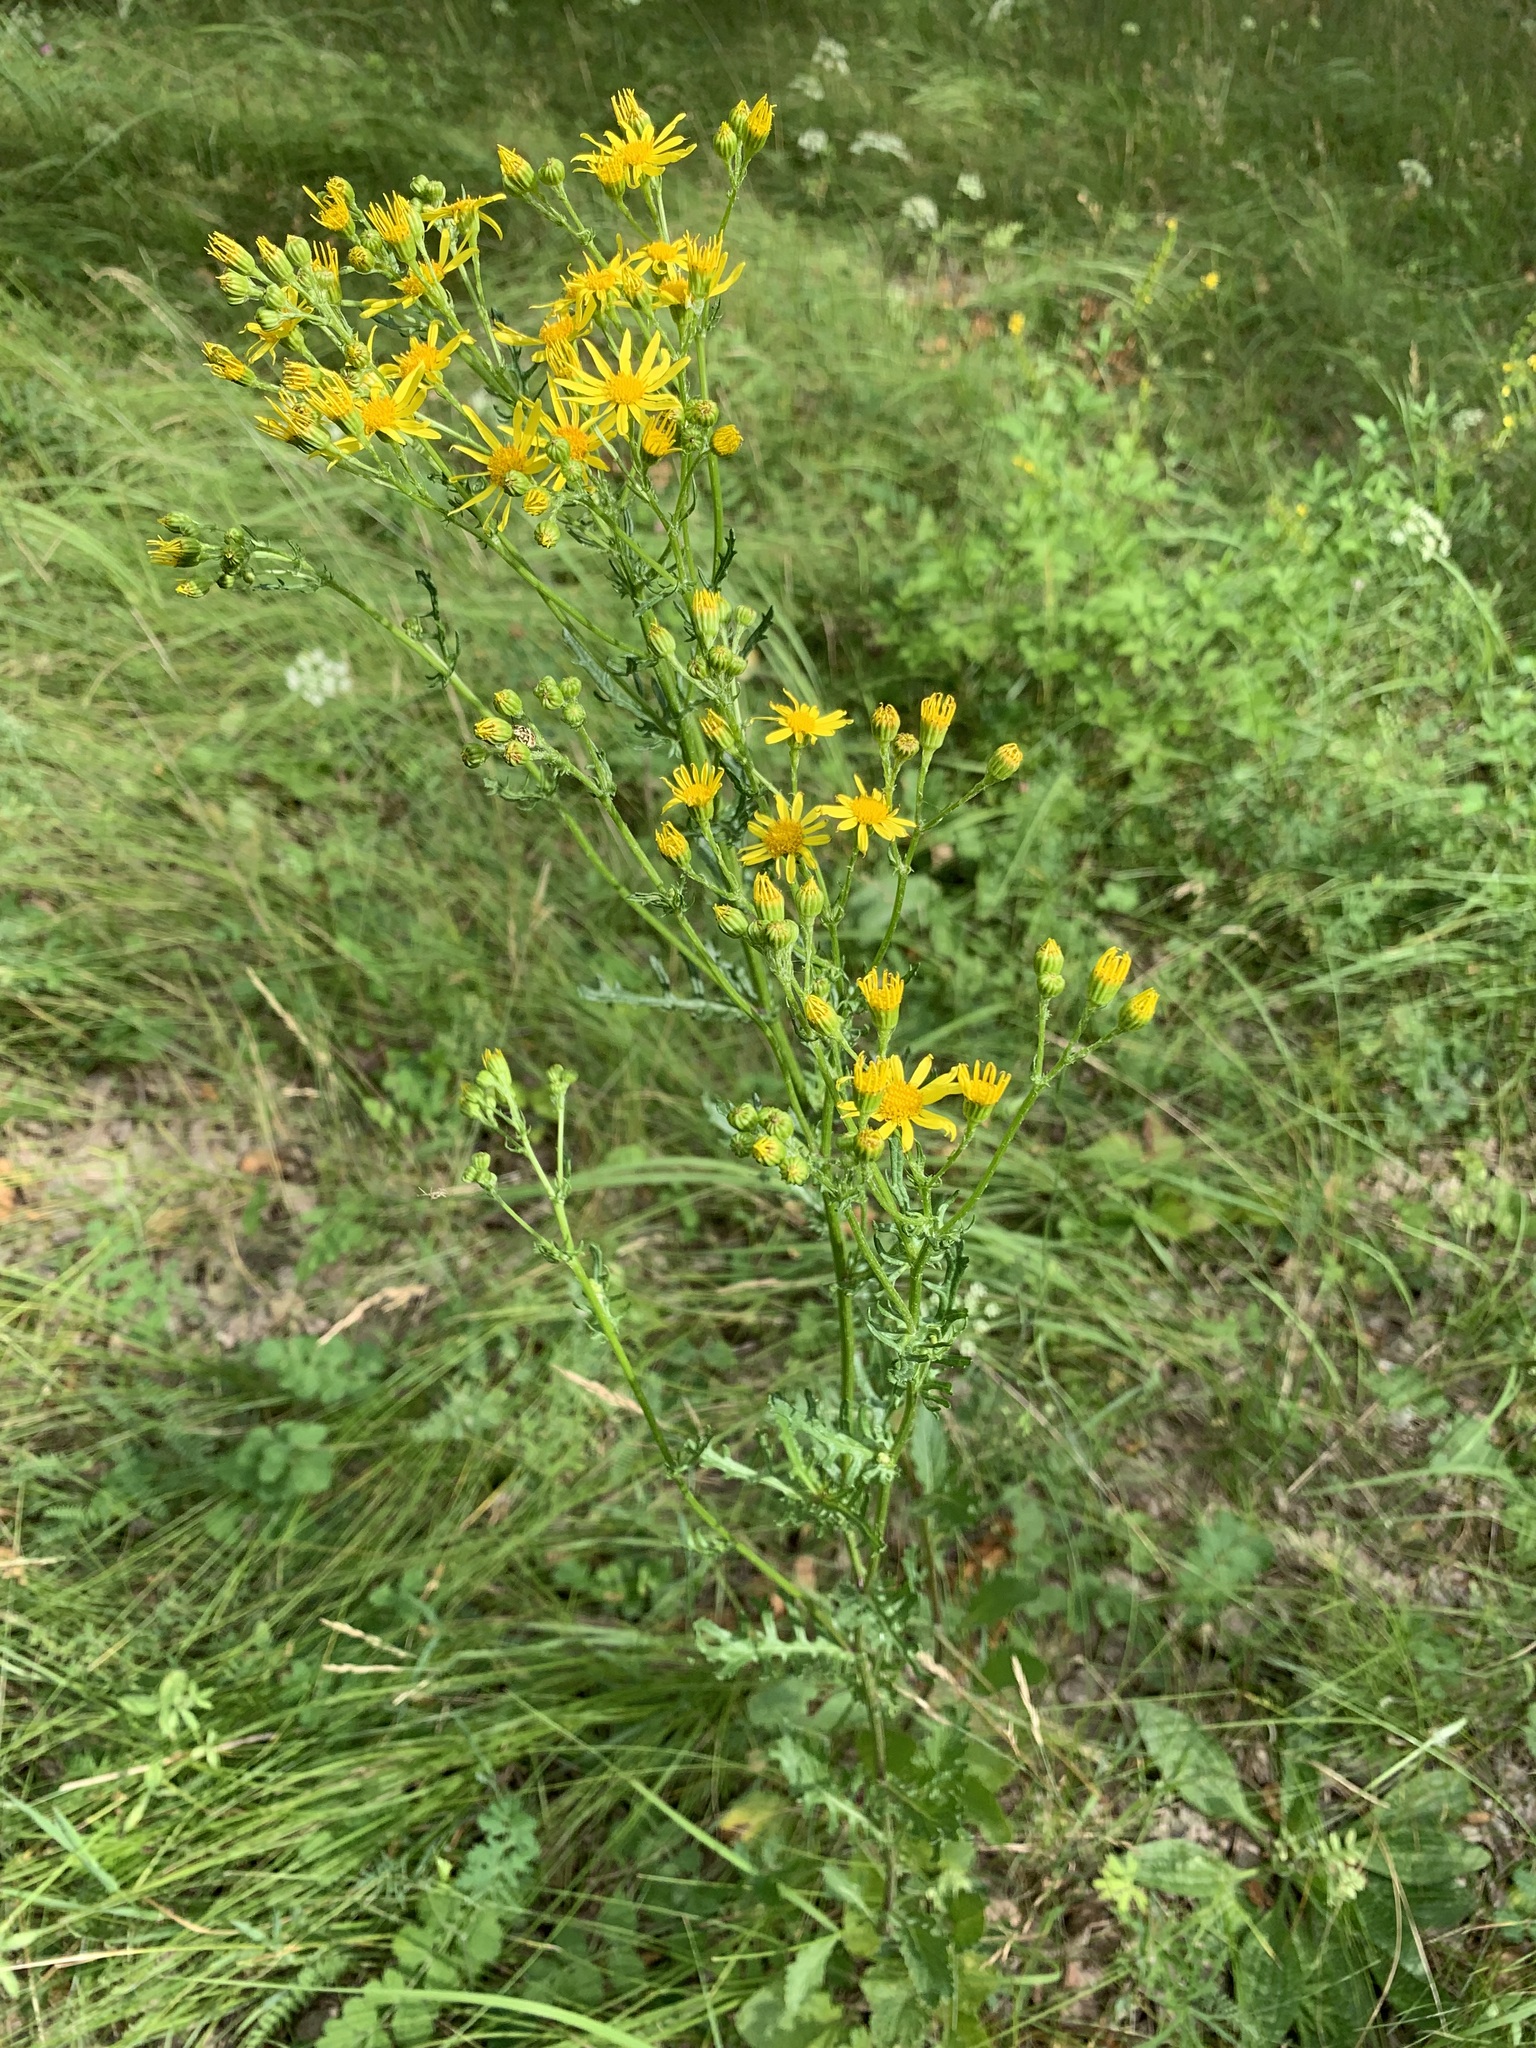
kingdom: Plantae
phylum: Tracheophyta
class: Magnoliopsida
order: Asterales
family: Asteraceae
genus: Jacobaea
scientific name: Jacobaea vulgaris
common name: Stinking willie
